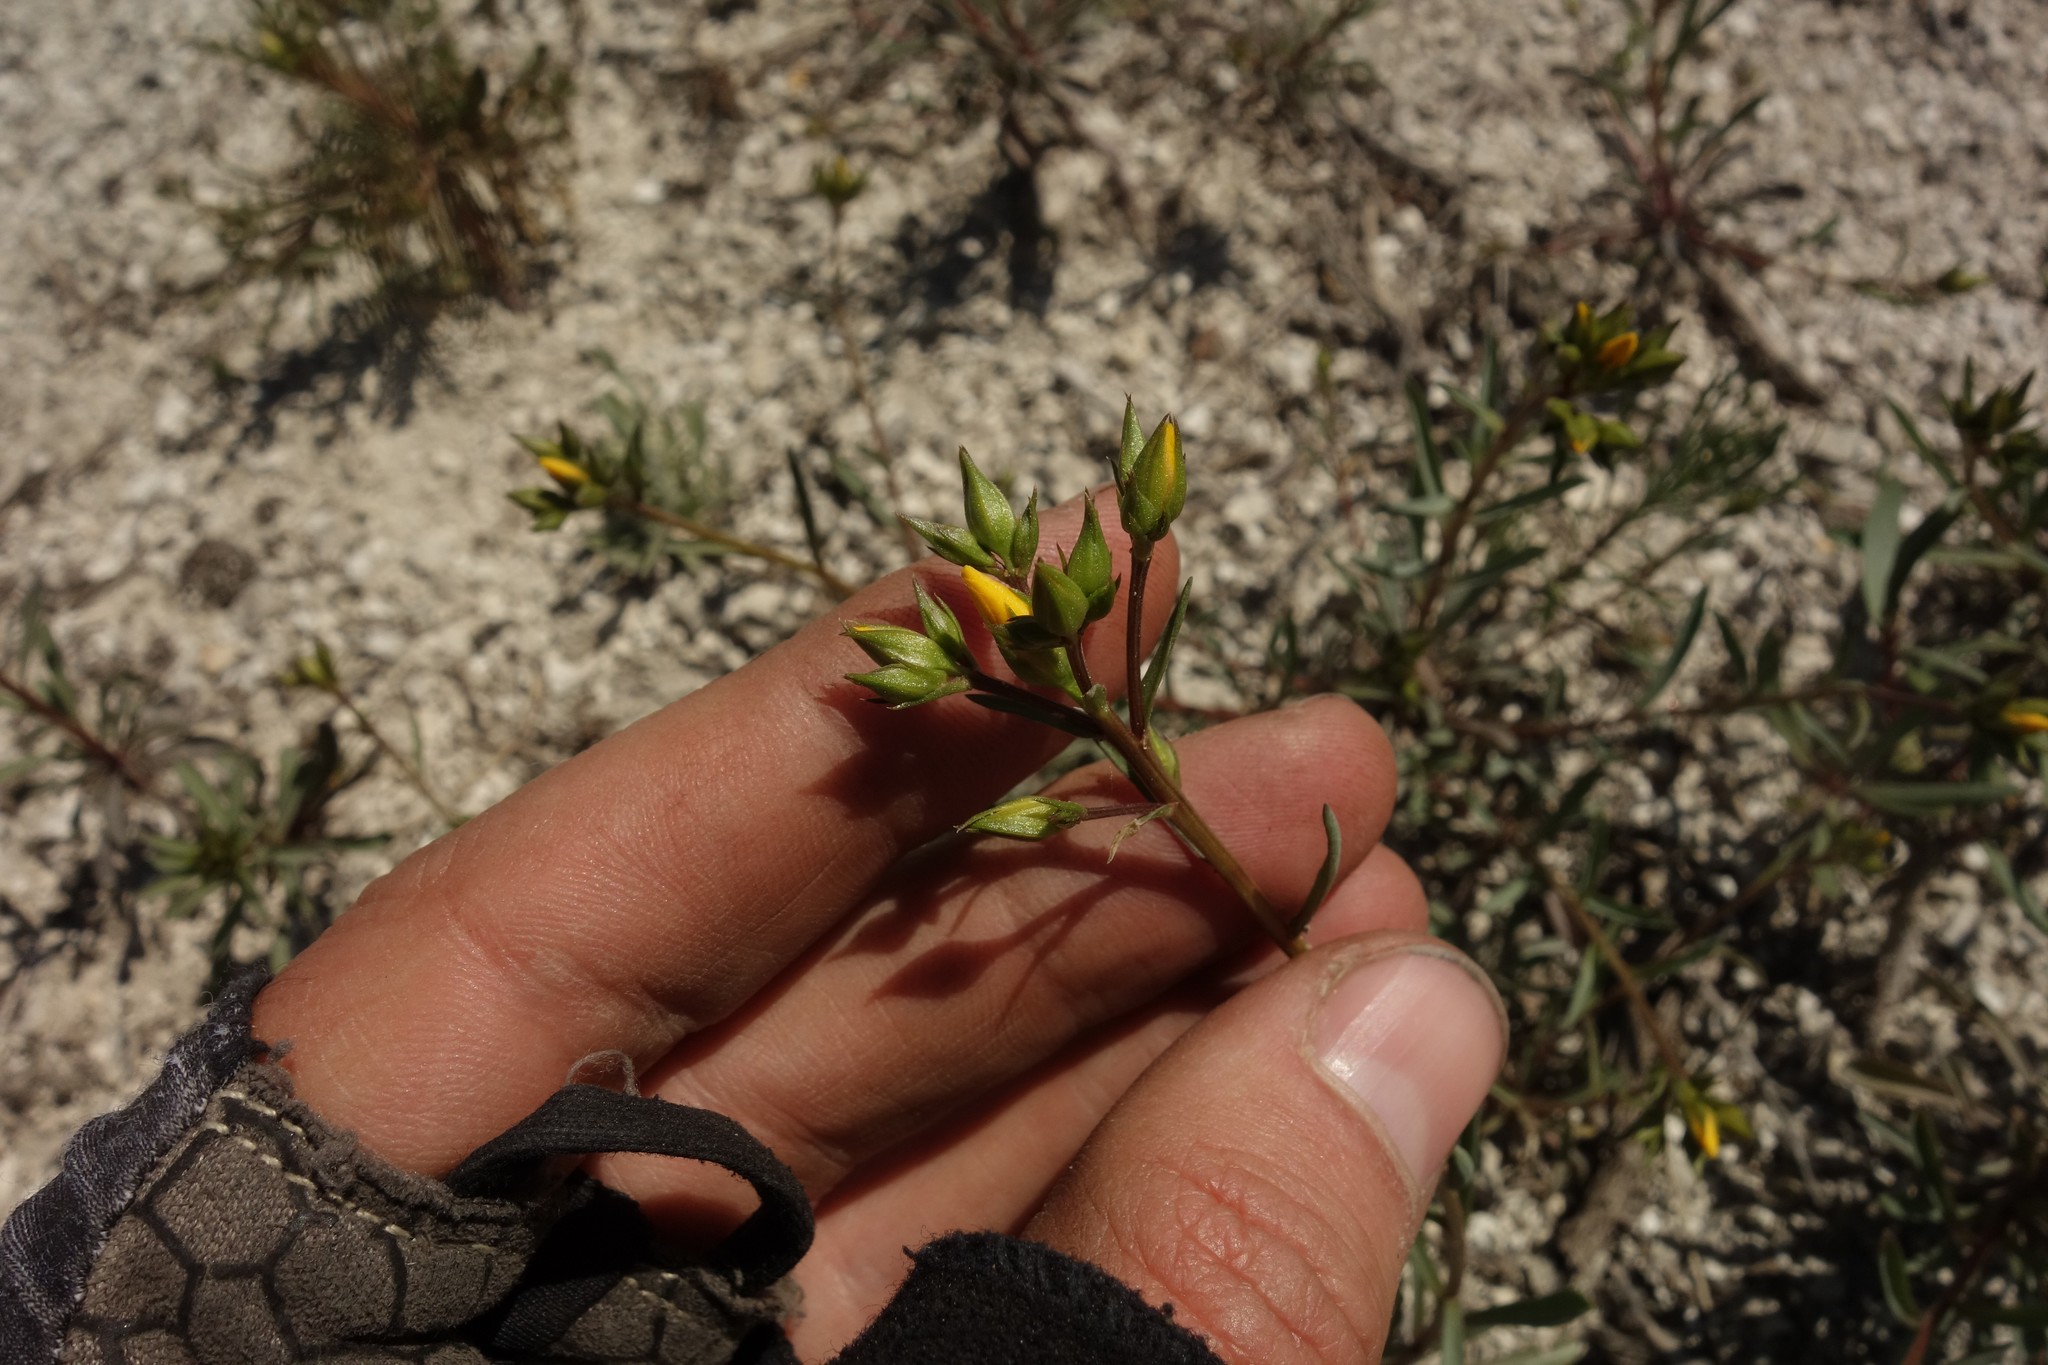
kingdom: Plantae
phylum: Tracheophyta
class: Magnoliopsida
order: Malpighiales
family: Linaceae
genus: Linum
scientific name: Linum ucranicum
